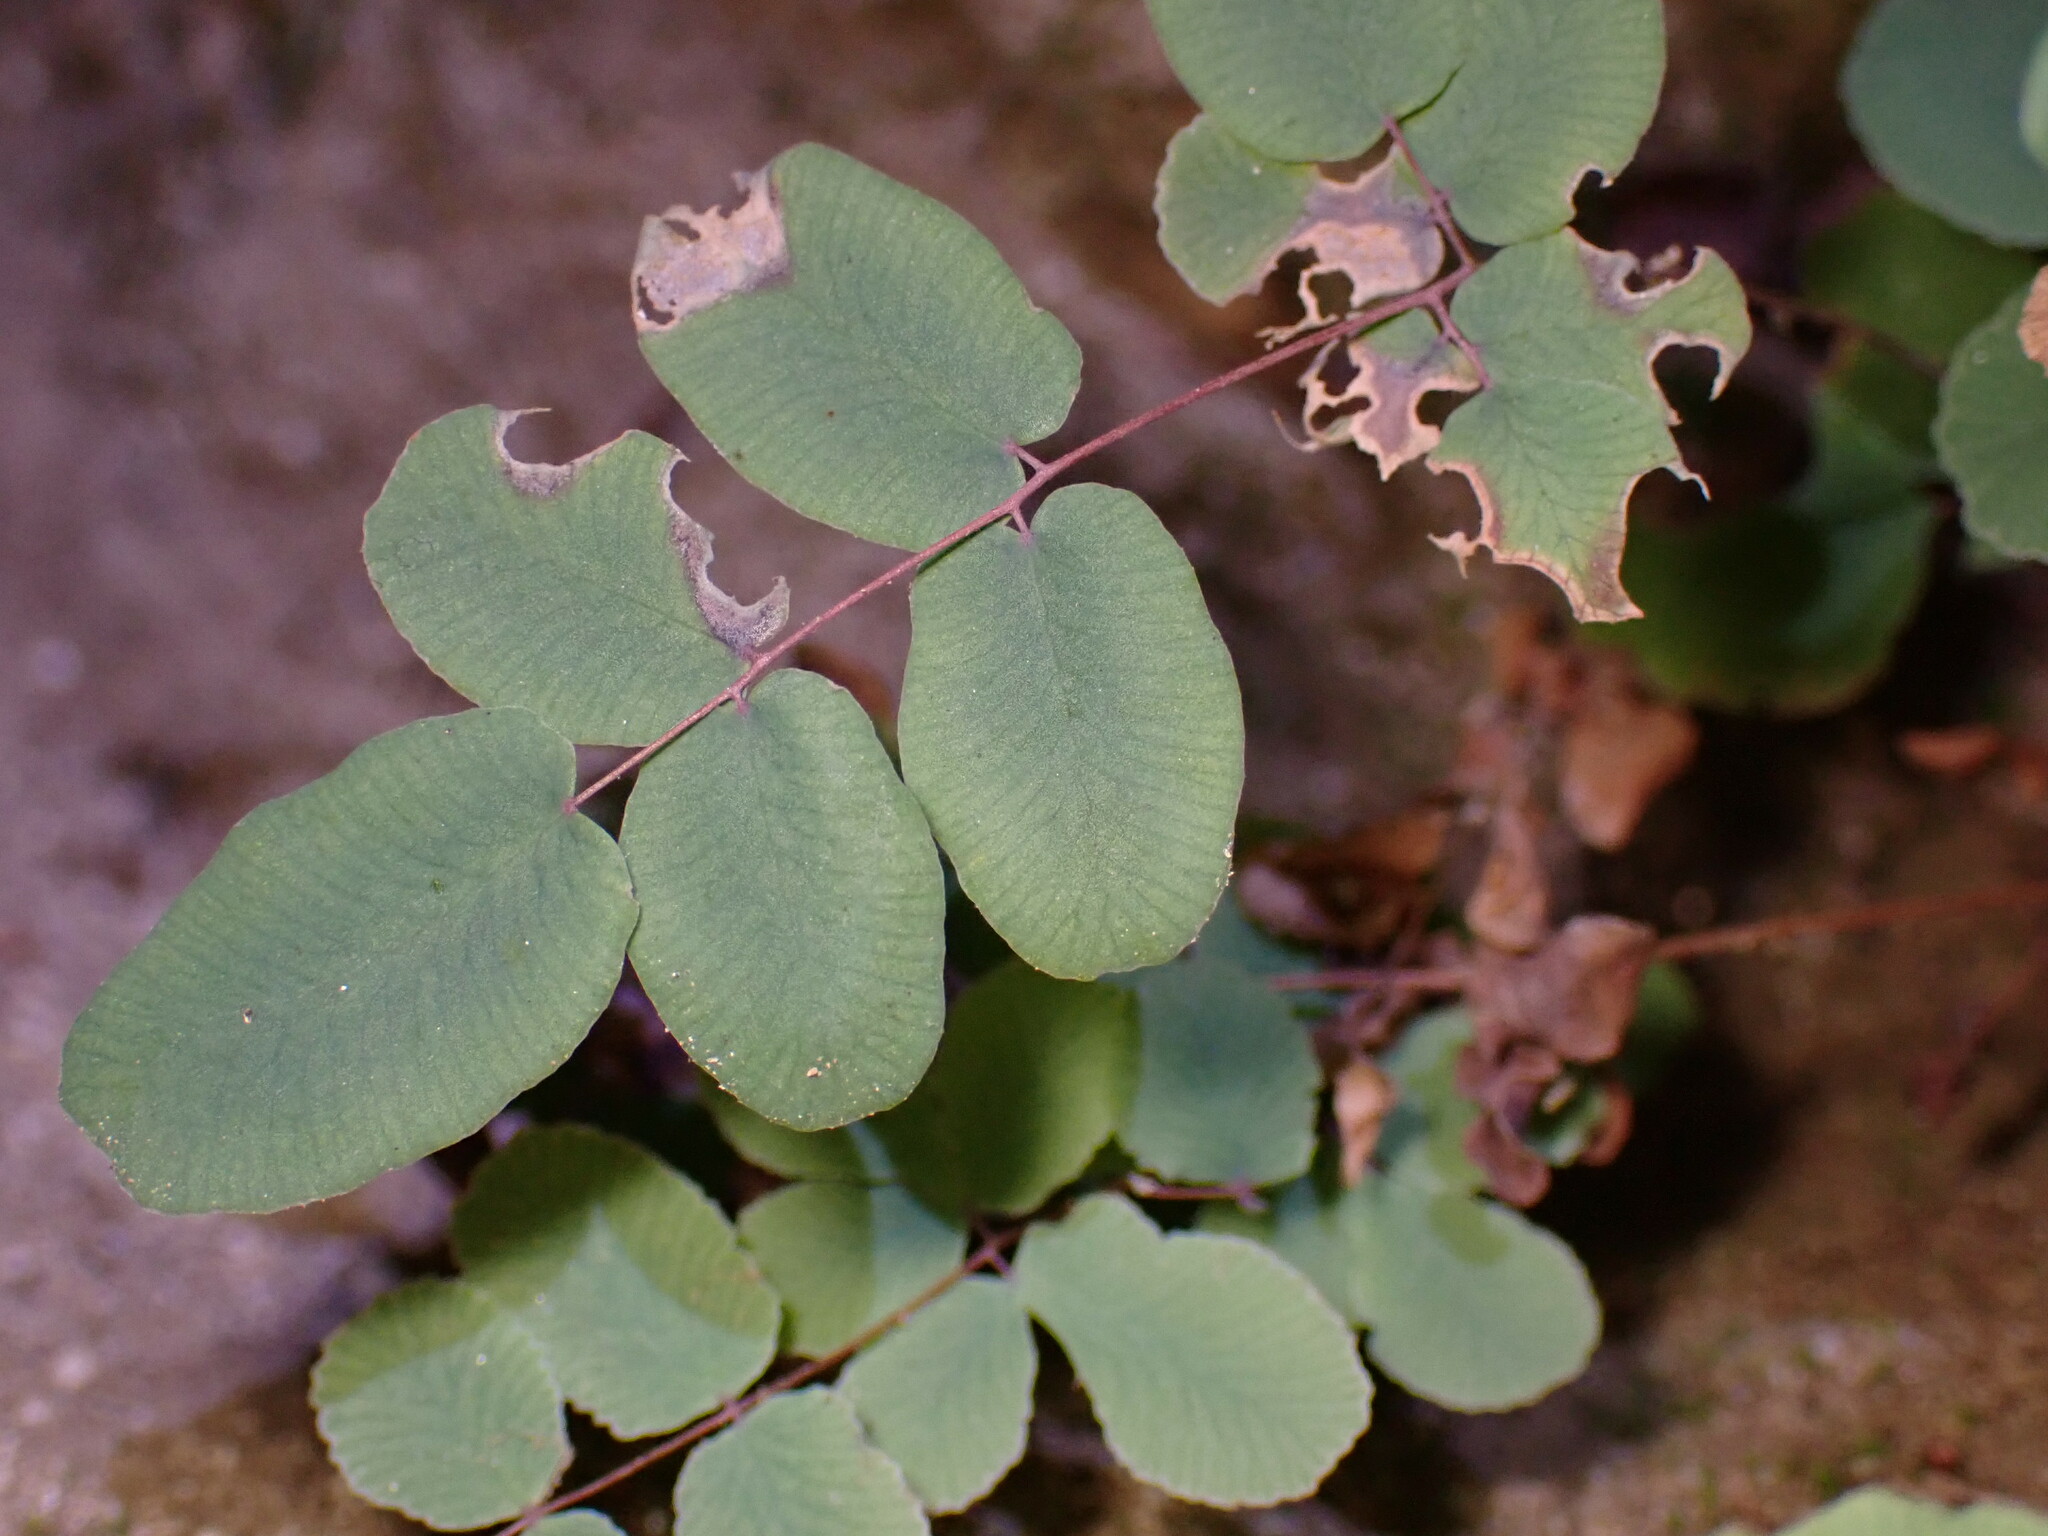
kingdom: Plantae
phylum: Tracheophyta
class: Polypodiopsida
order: Polypodiales
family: Pteridaceae
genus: Pellaea
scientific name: Pellaea andromedifolia
